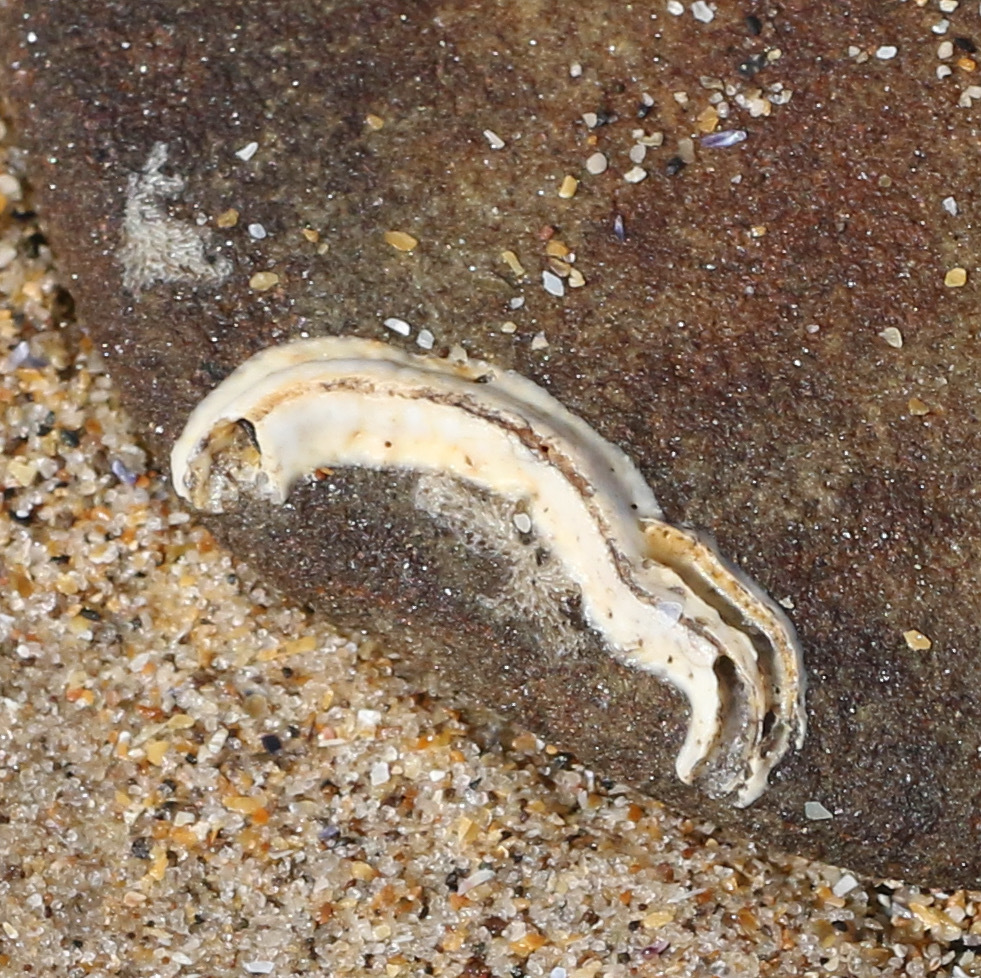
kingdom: Animalia
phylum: Annelida
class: Polychaeta
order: Sabellida
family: Serpulidae
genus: Spirobranchus
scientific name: Spirobranchus lamarcki
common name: Keelworm
